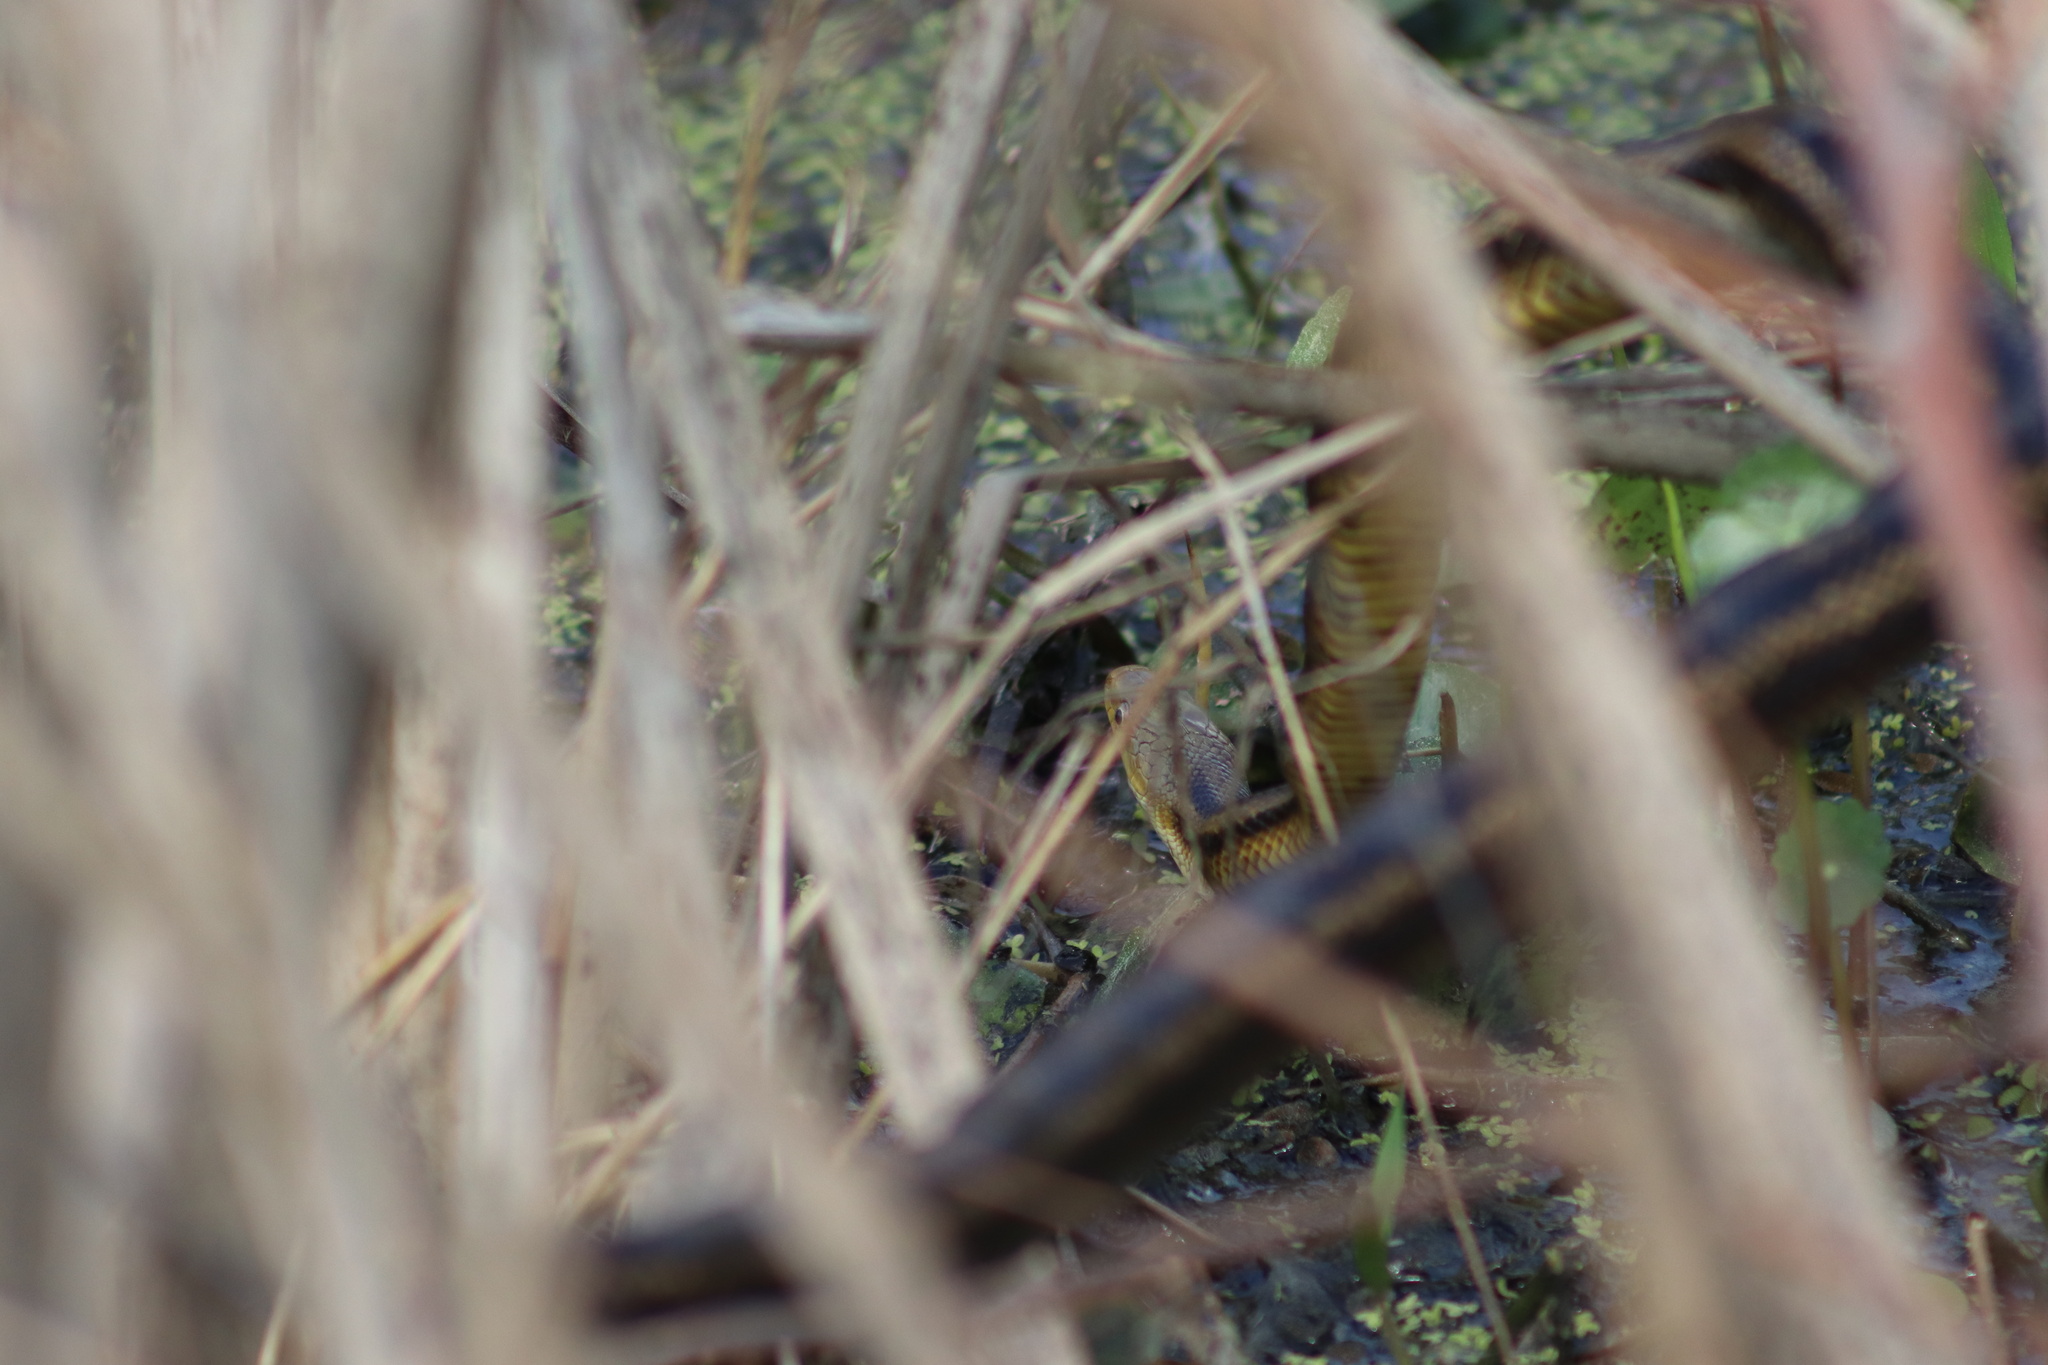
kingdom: Animalia
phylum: Chordata
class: Squamata
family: Colubridae
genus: Pantherophis
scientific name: Pantherophis alleghaniensis
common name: Eastern rat snake
